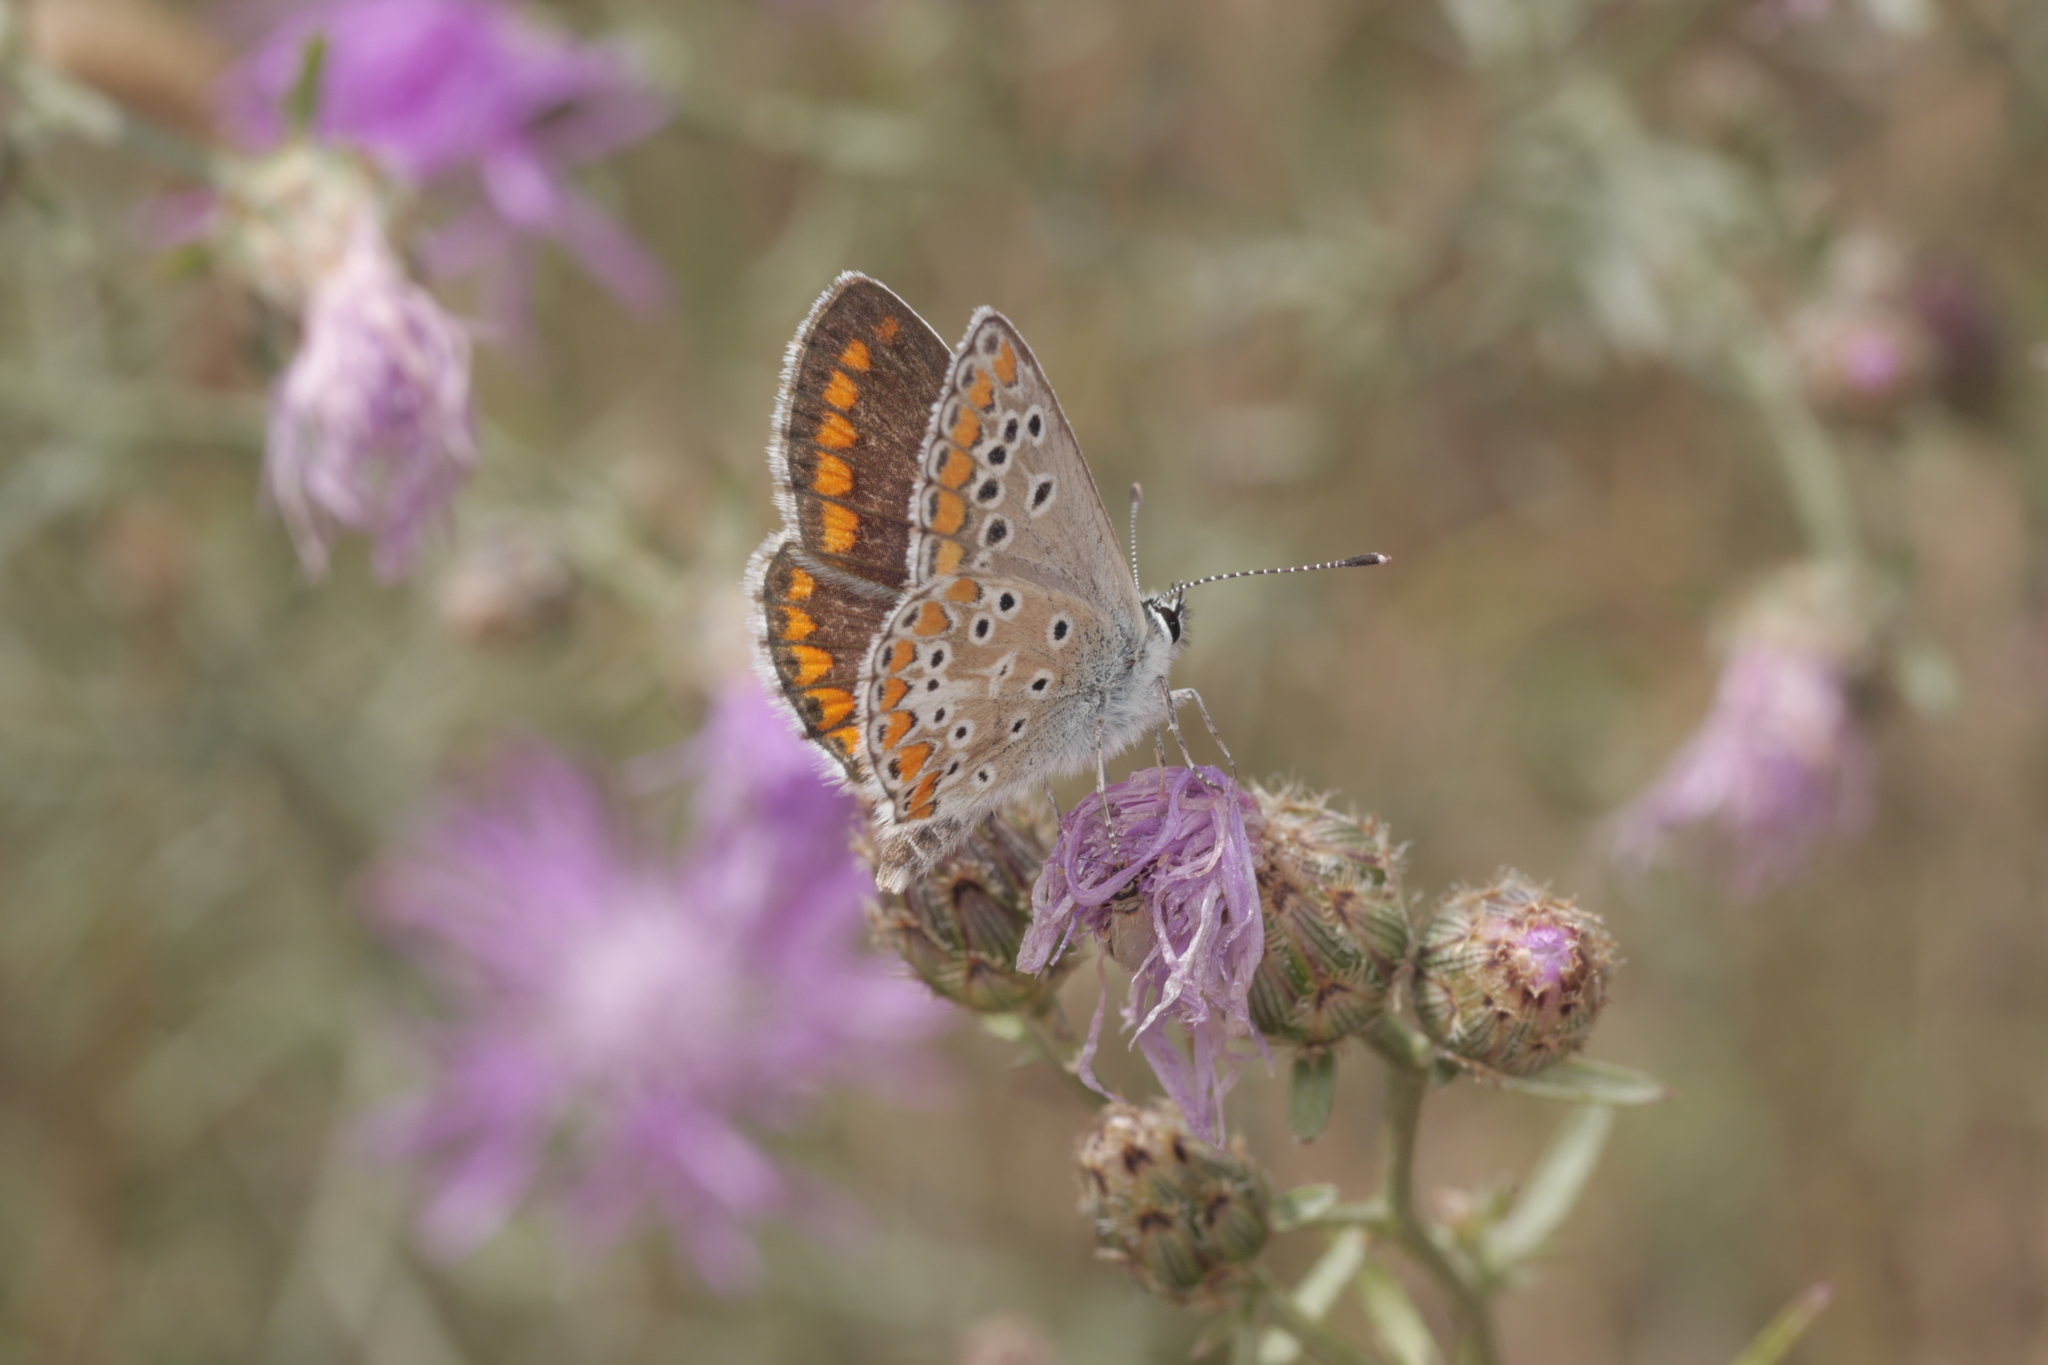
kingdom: Animalia
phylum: Arthropoda
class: Insecta
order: Lepidoptera
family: Lycaenidae
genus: Aricia
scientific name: Aricia agestis
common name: Brown argus
